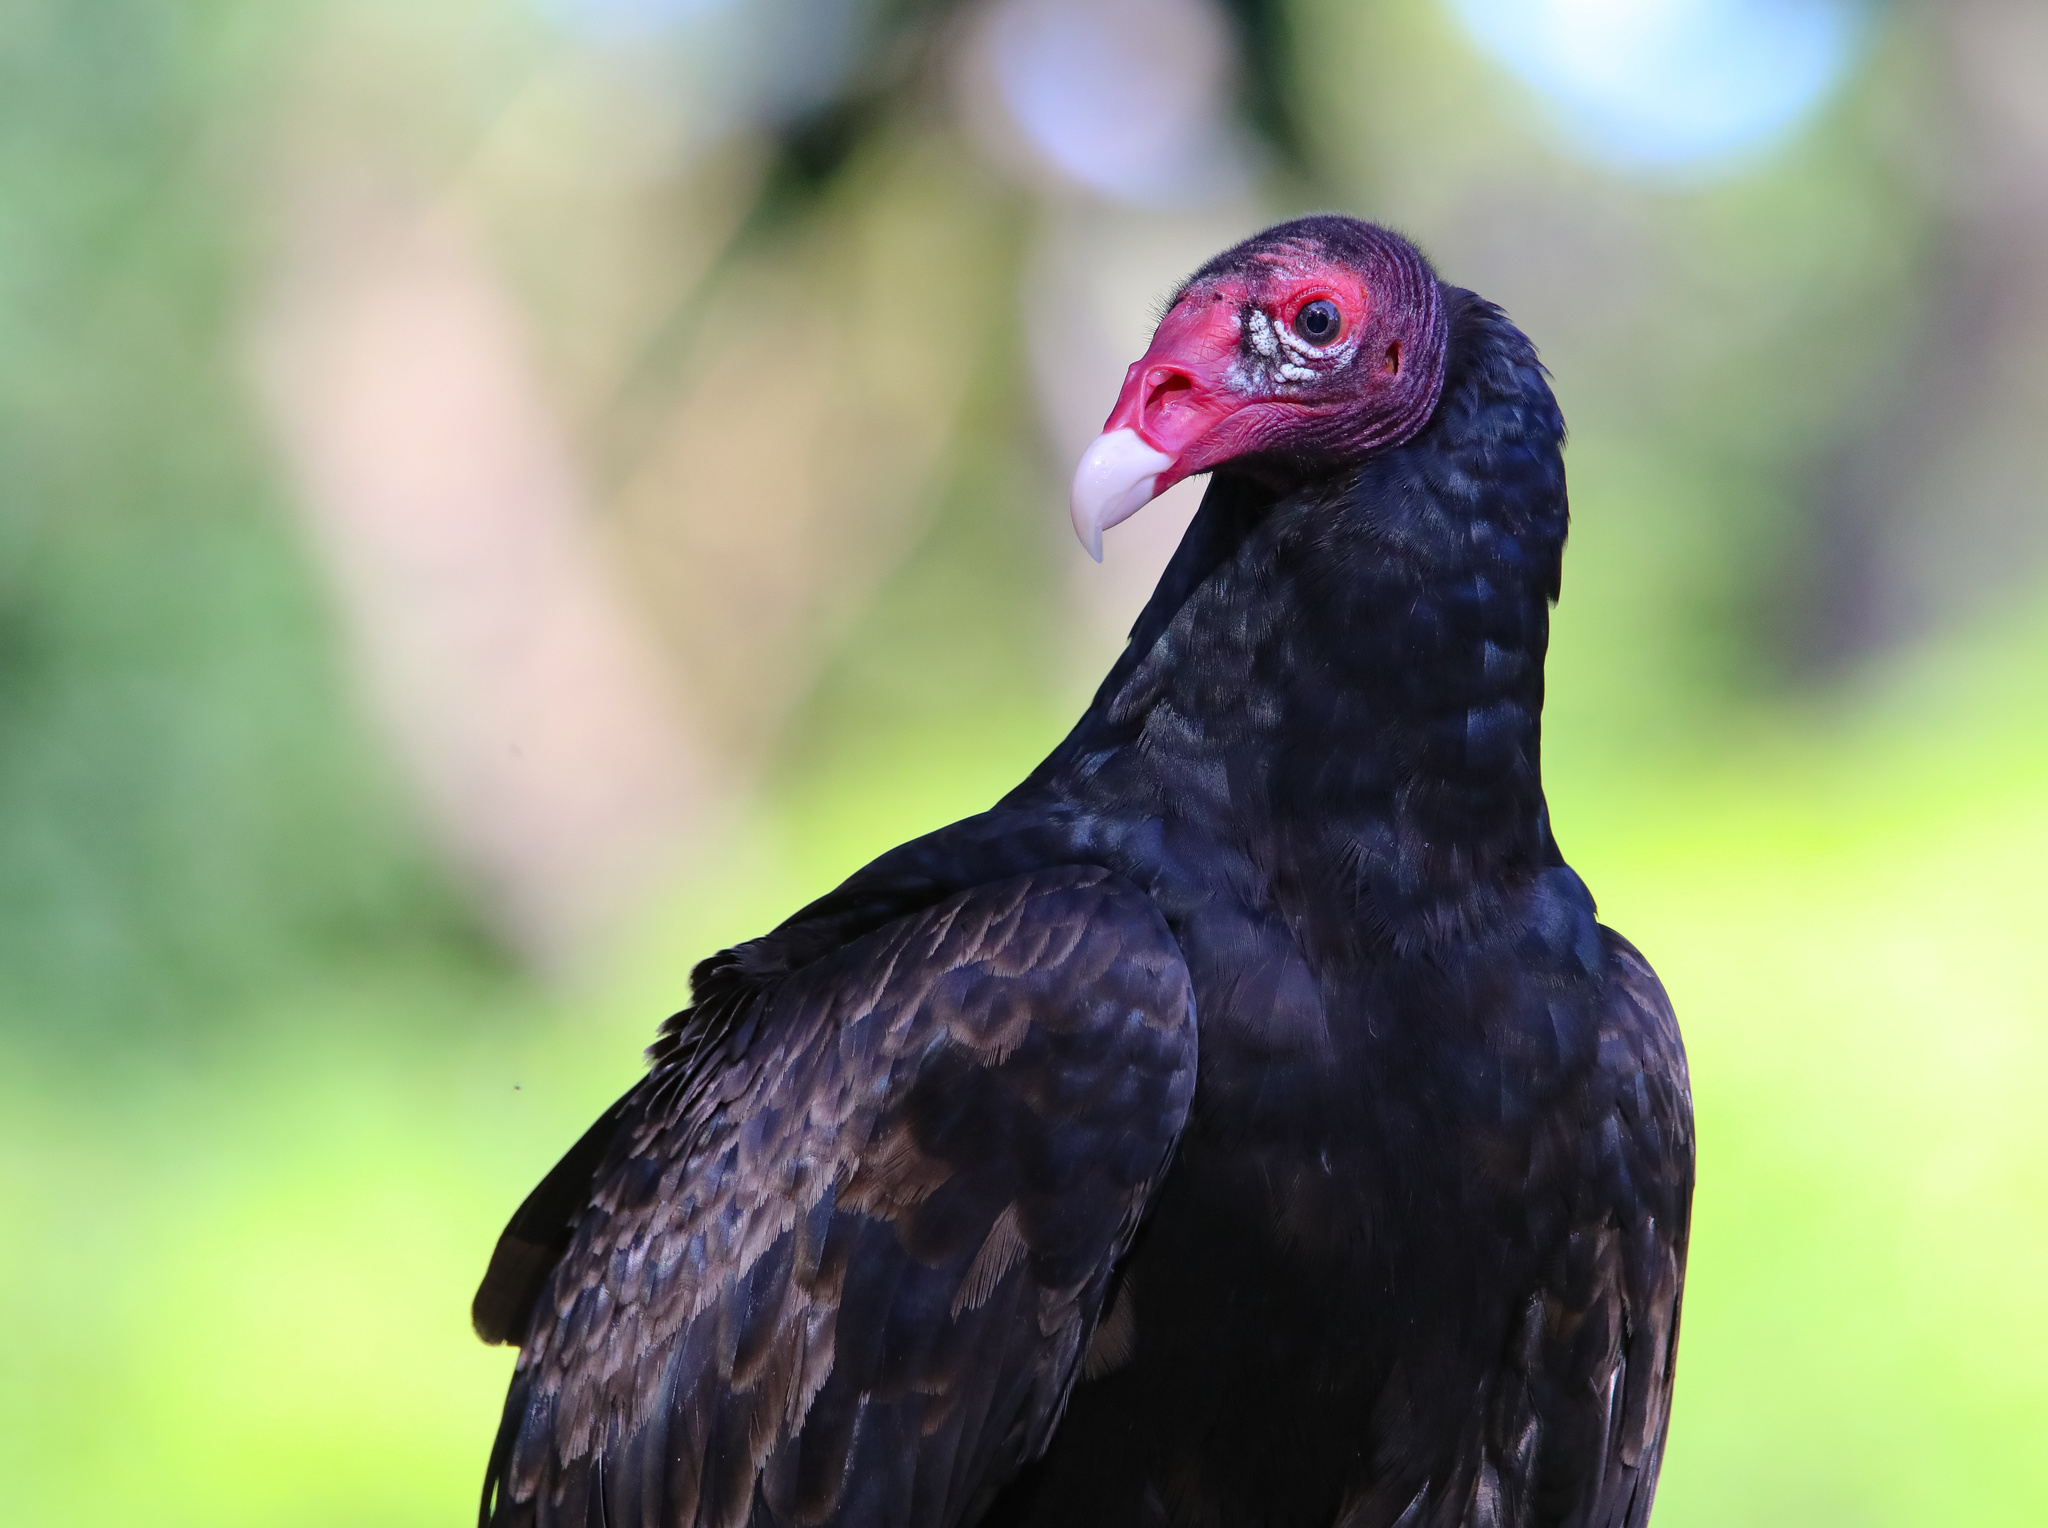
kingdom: Animalia
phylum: Chordata
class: Aves
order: Accipitriformes
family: Cathartidae
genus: Cathartes
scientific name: Cathartes aura
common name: Turkey vulture
